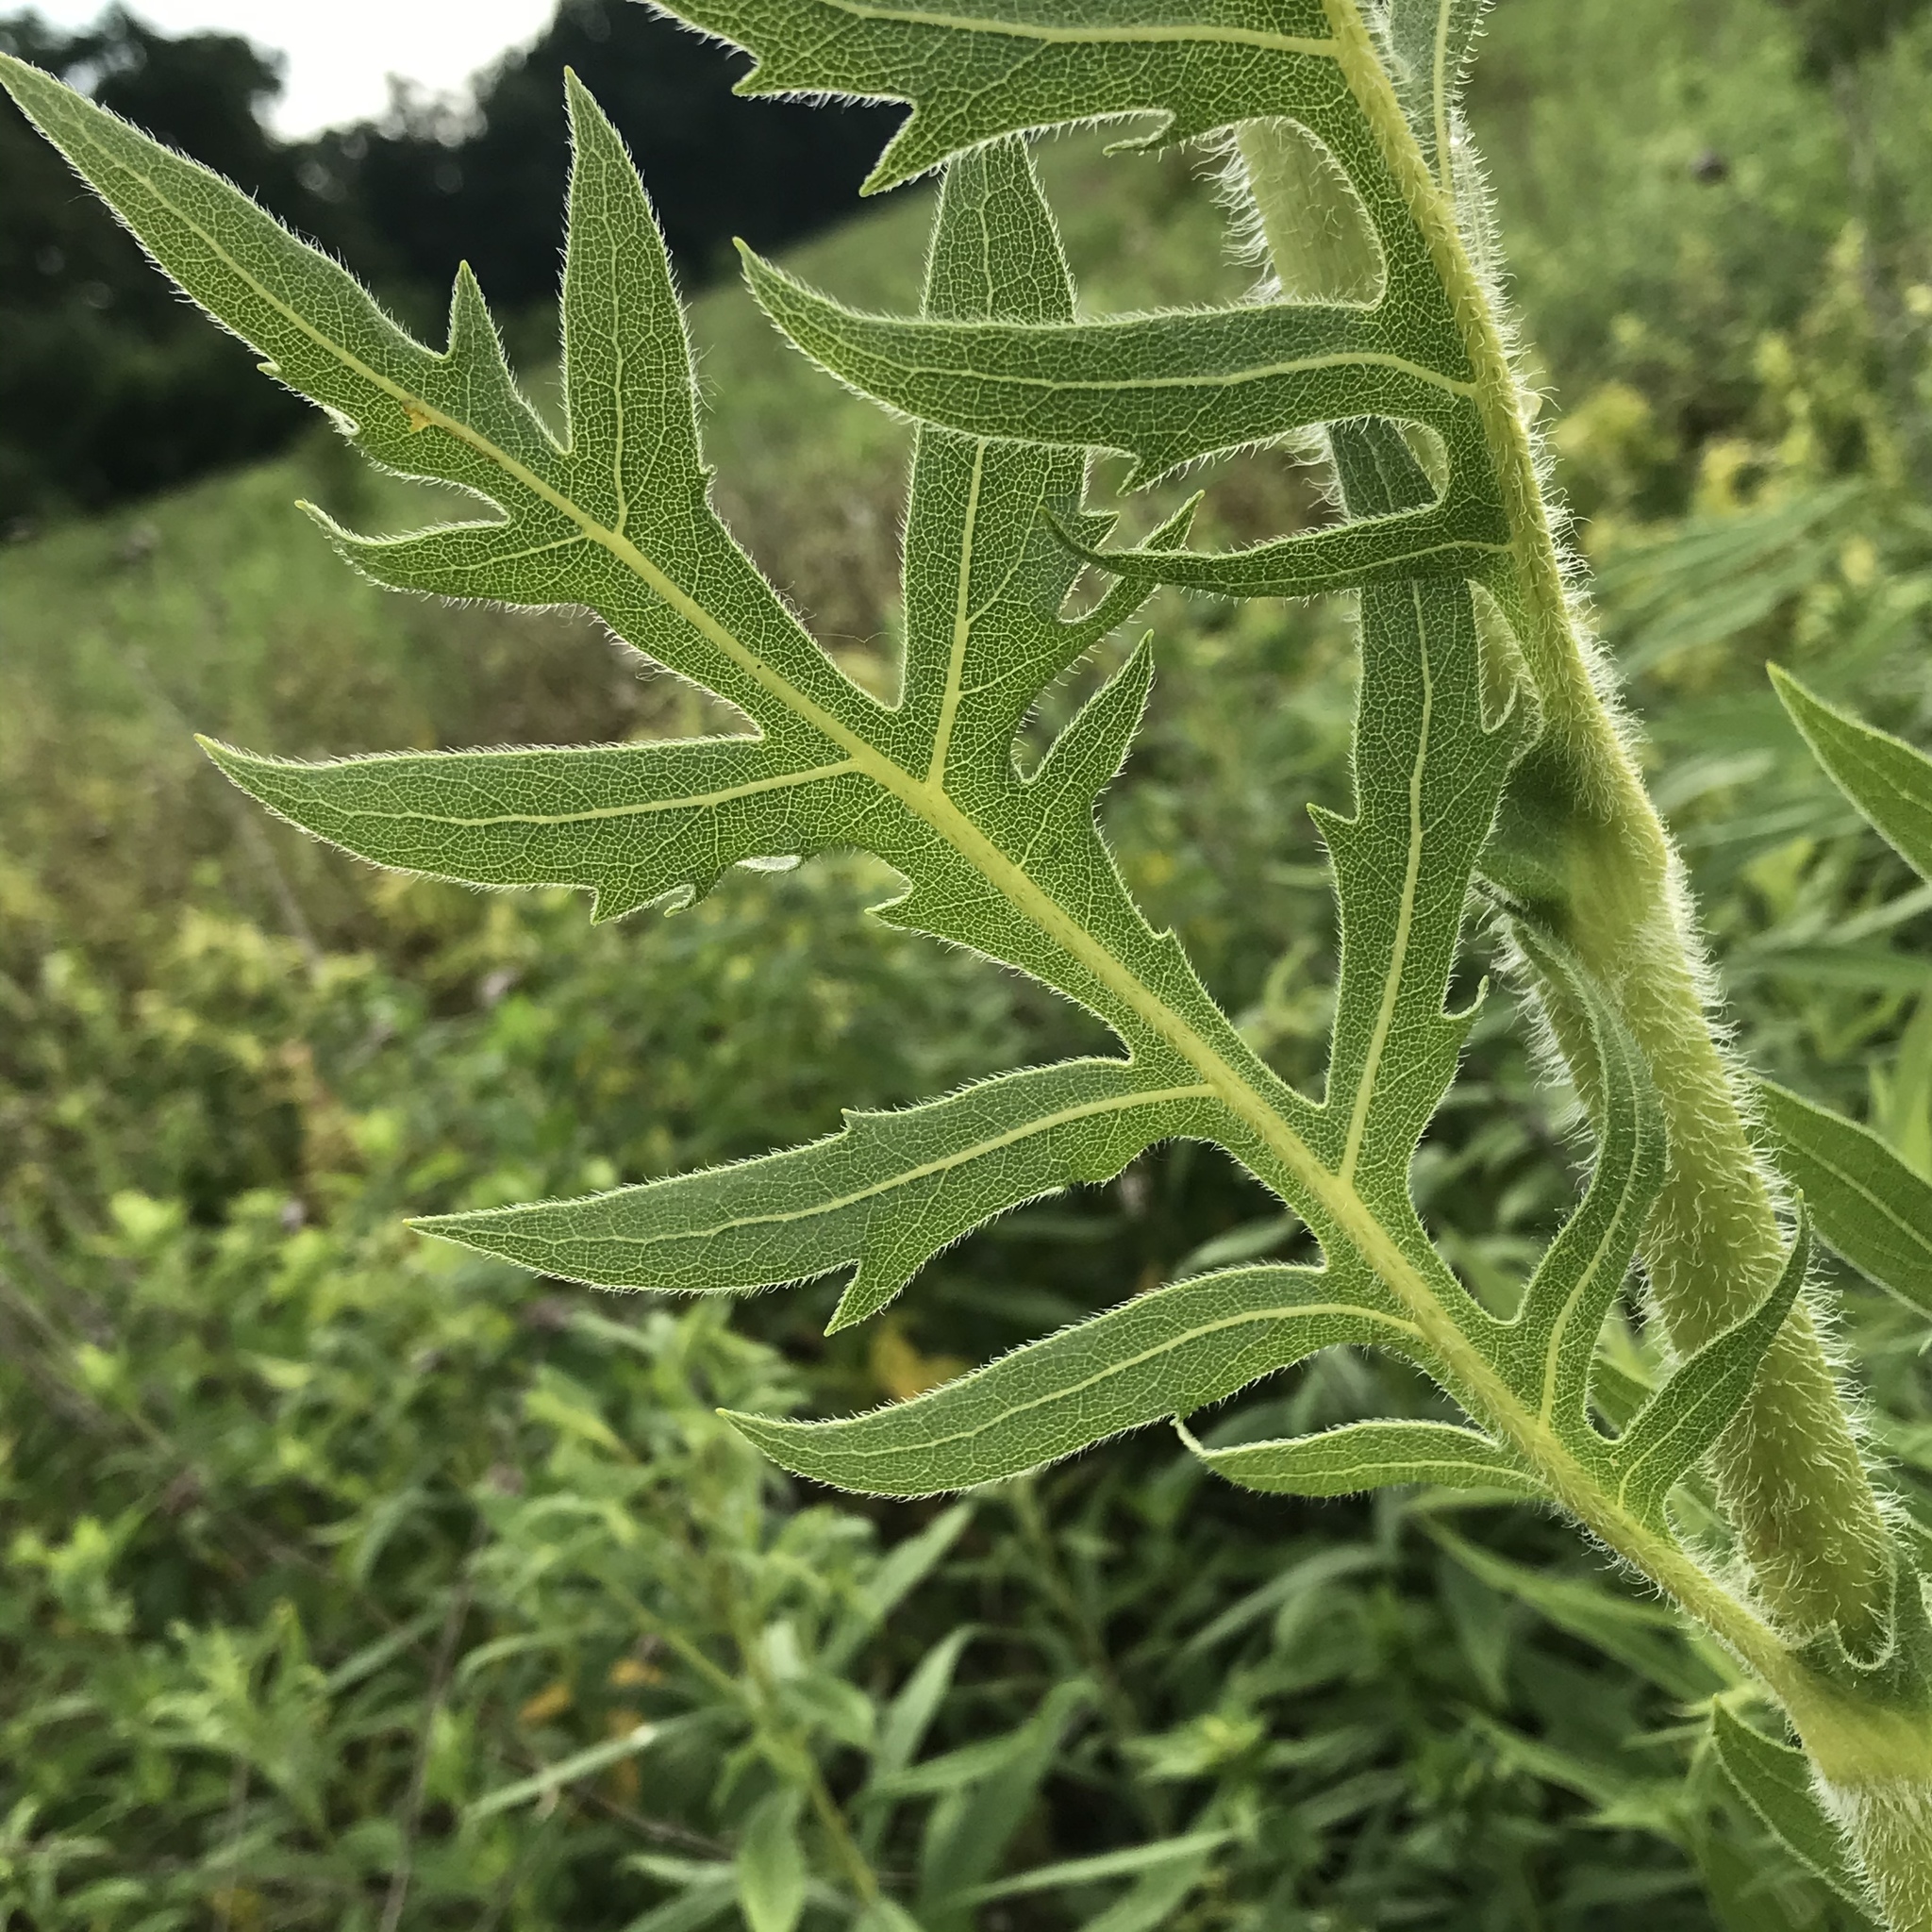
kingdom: Plantae
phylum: Tracheophyta
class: Magnoliopsida
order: Asterales
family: Asteraceae
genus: Silphium
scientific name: Silphium laciniatum
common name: Polarplant
